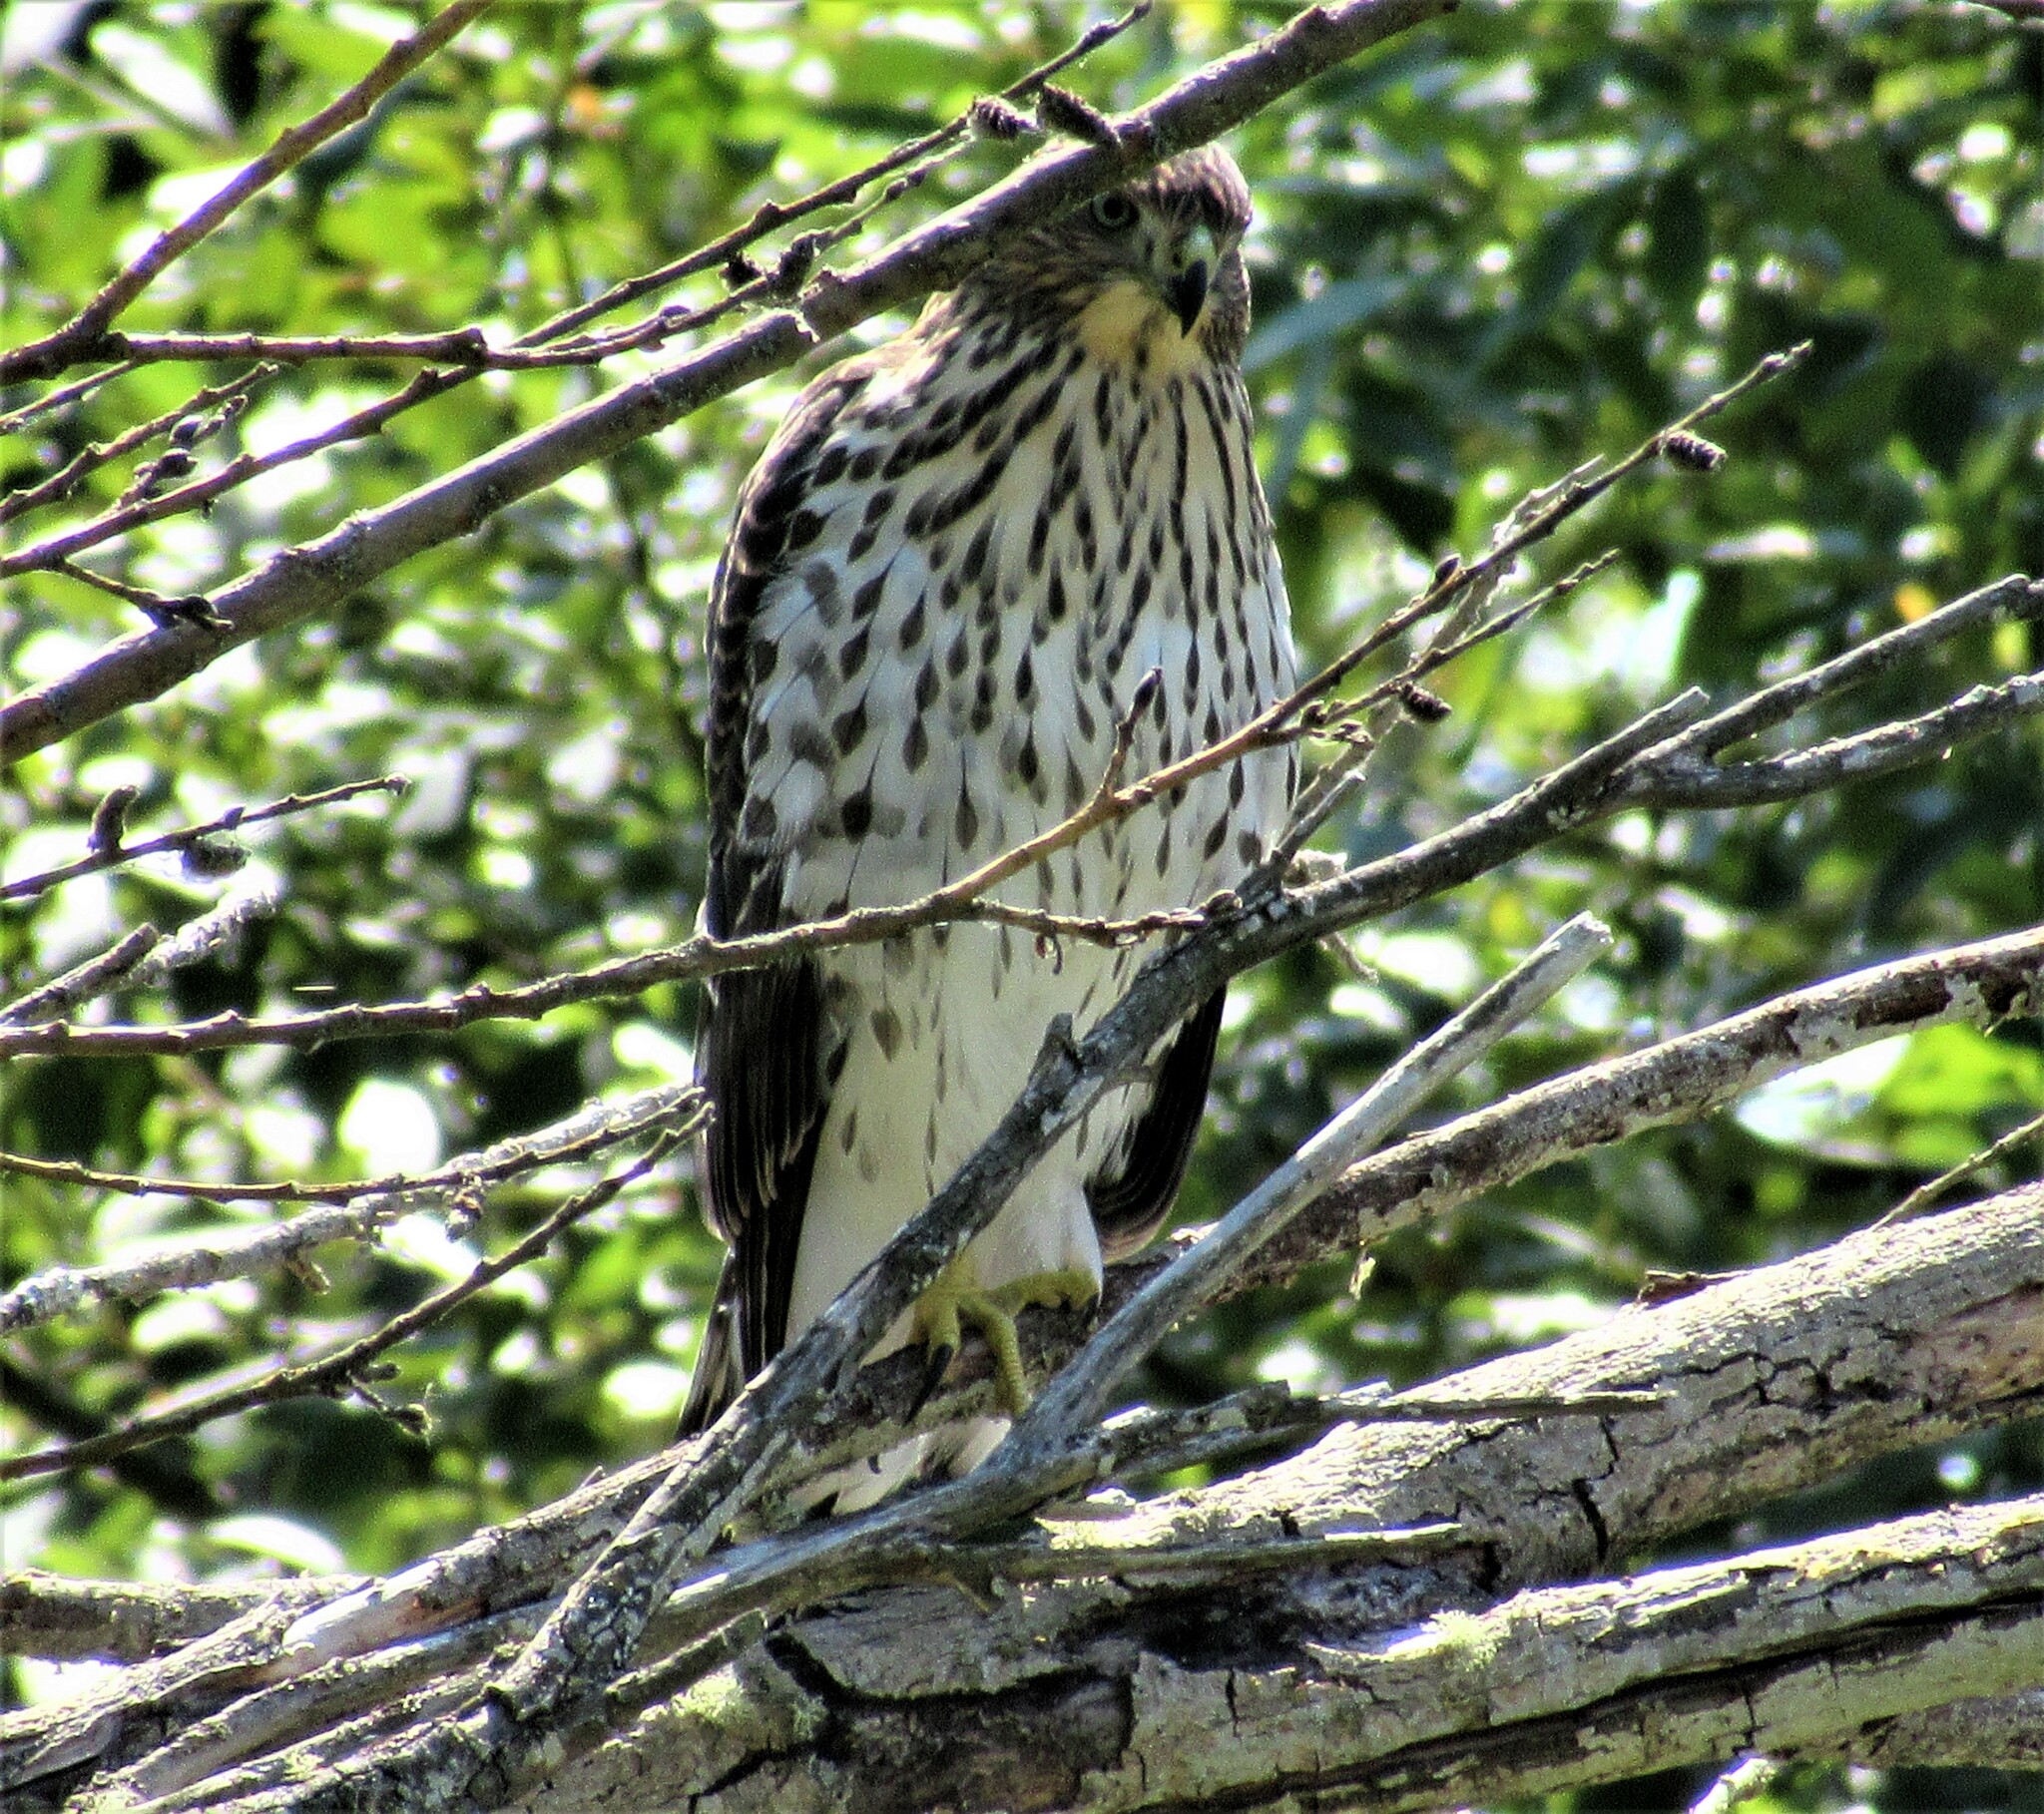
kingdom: Animalia
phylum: Chordata
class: Aves
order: Accipitriformes
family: Accipitridae
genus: Accipiter
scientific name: Accipiter cooperii
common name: Cooper's hawk
